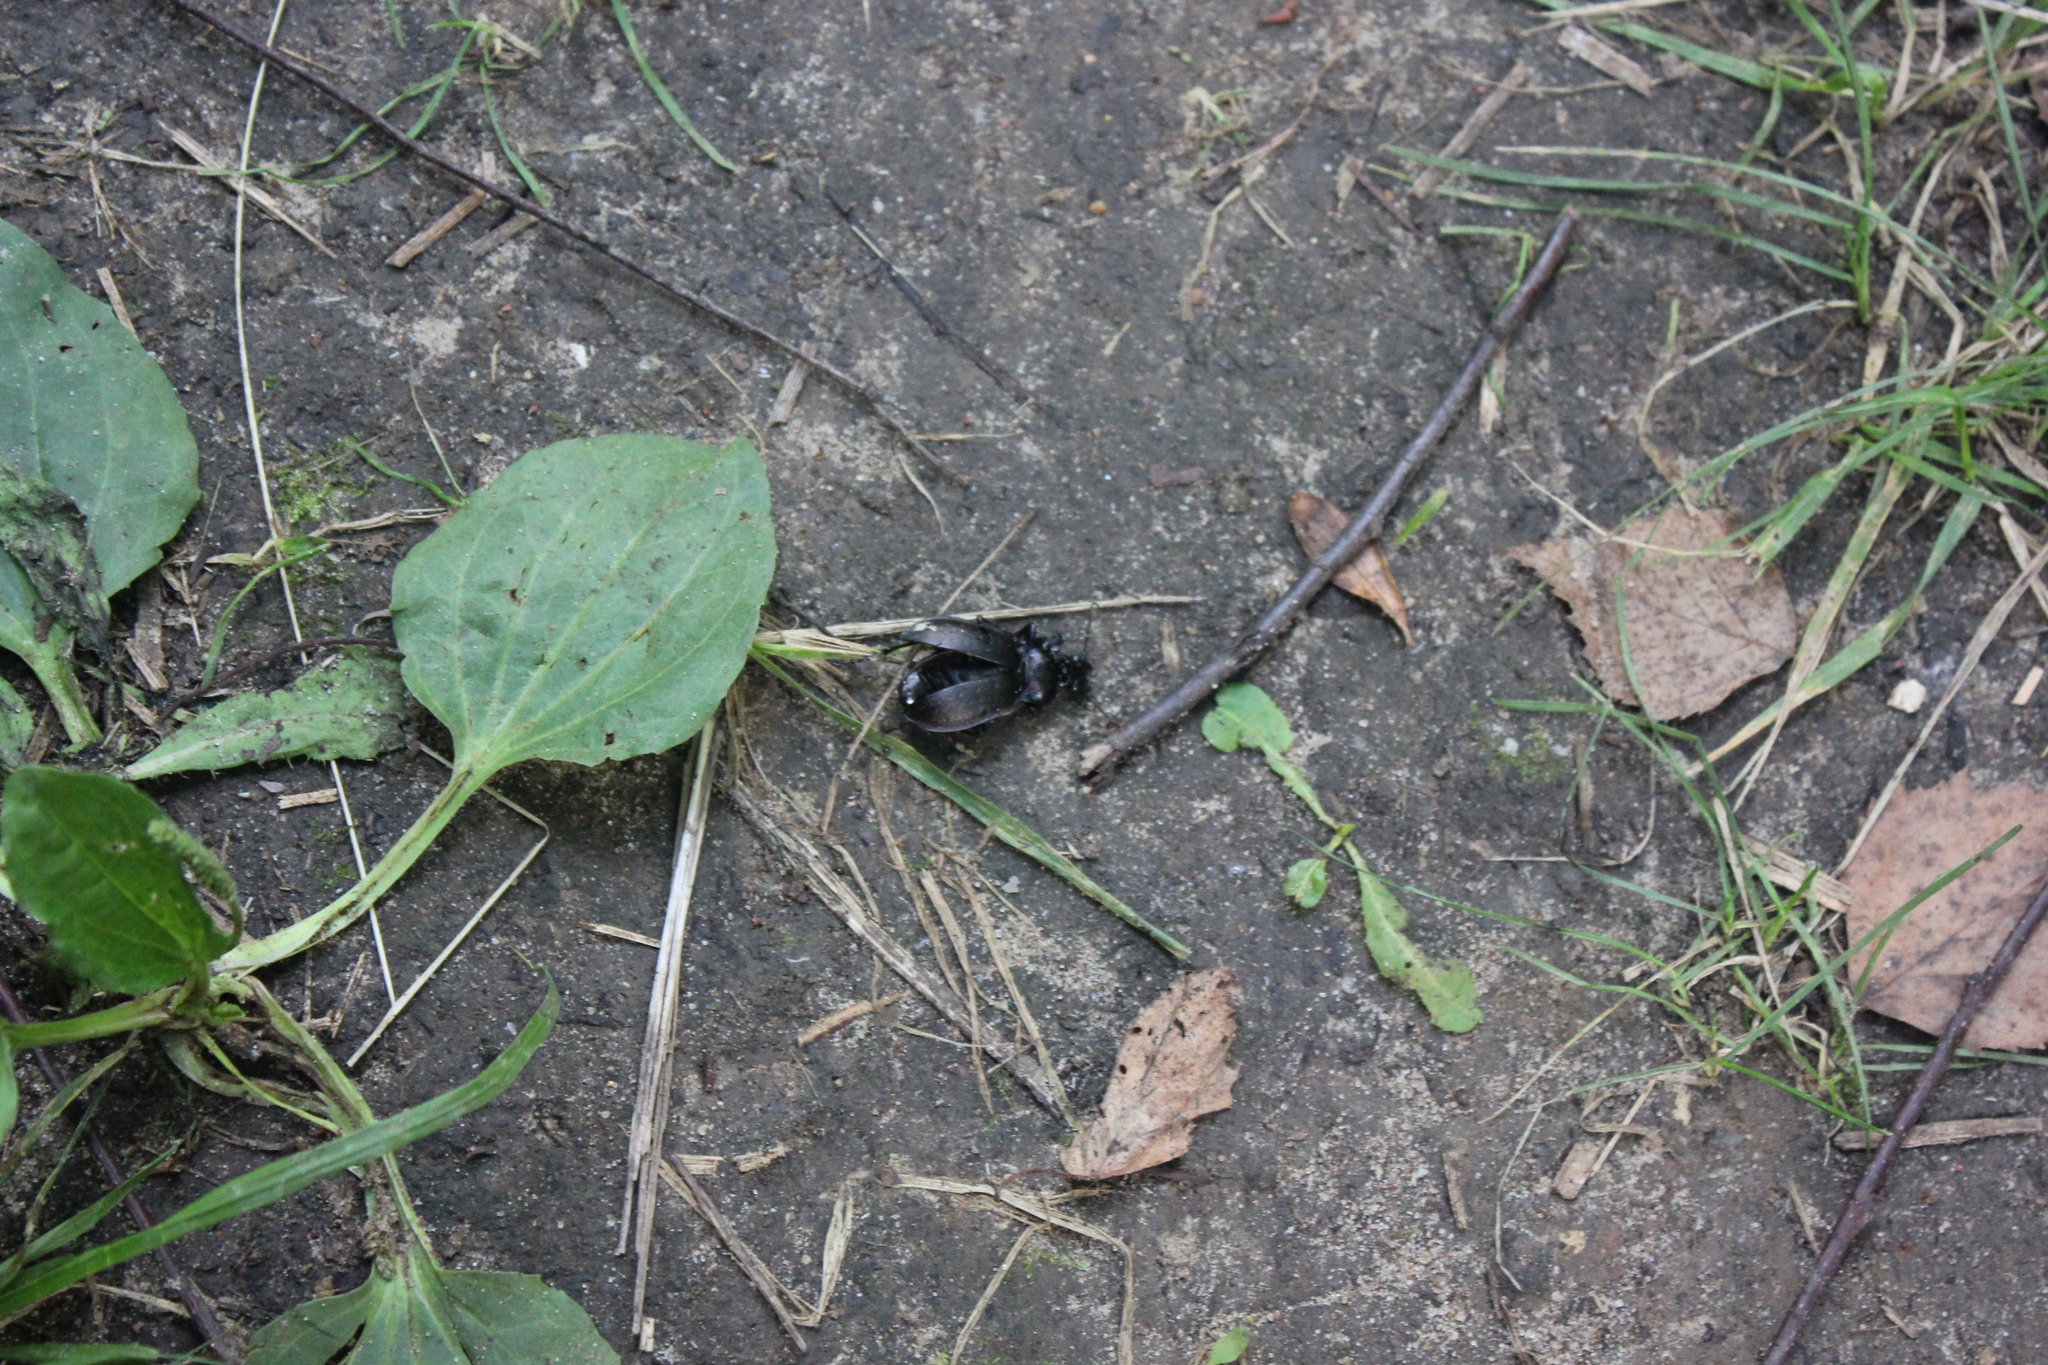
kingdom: Animalia
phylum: Arthropoda
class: Insecta
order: Coleoptera
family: Carabidae
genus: Carabus
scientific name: Carabus nemoralis
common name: European ground beetle
